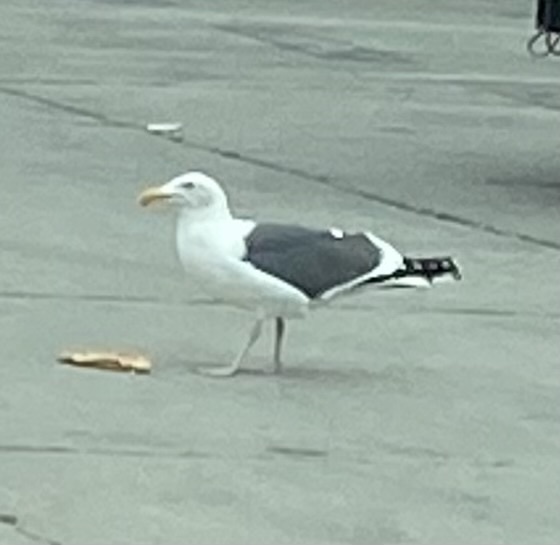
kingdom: Animalia
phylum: Chordata
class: Aves
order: Charadriiformes
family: Laridae
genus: Larus
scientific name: Larus occidentalis
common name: Western gull
